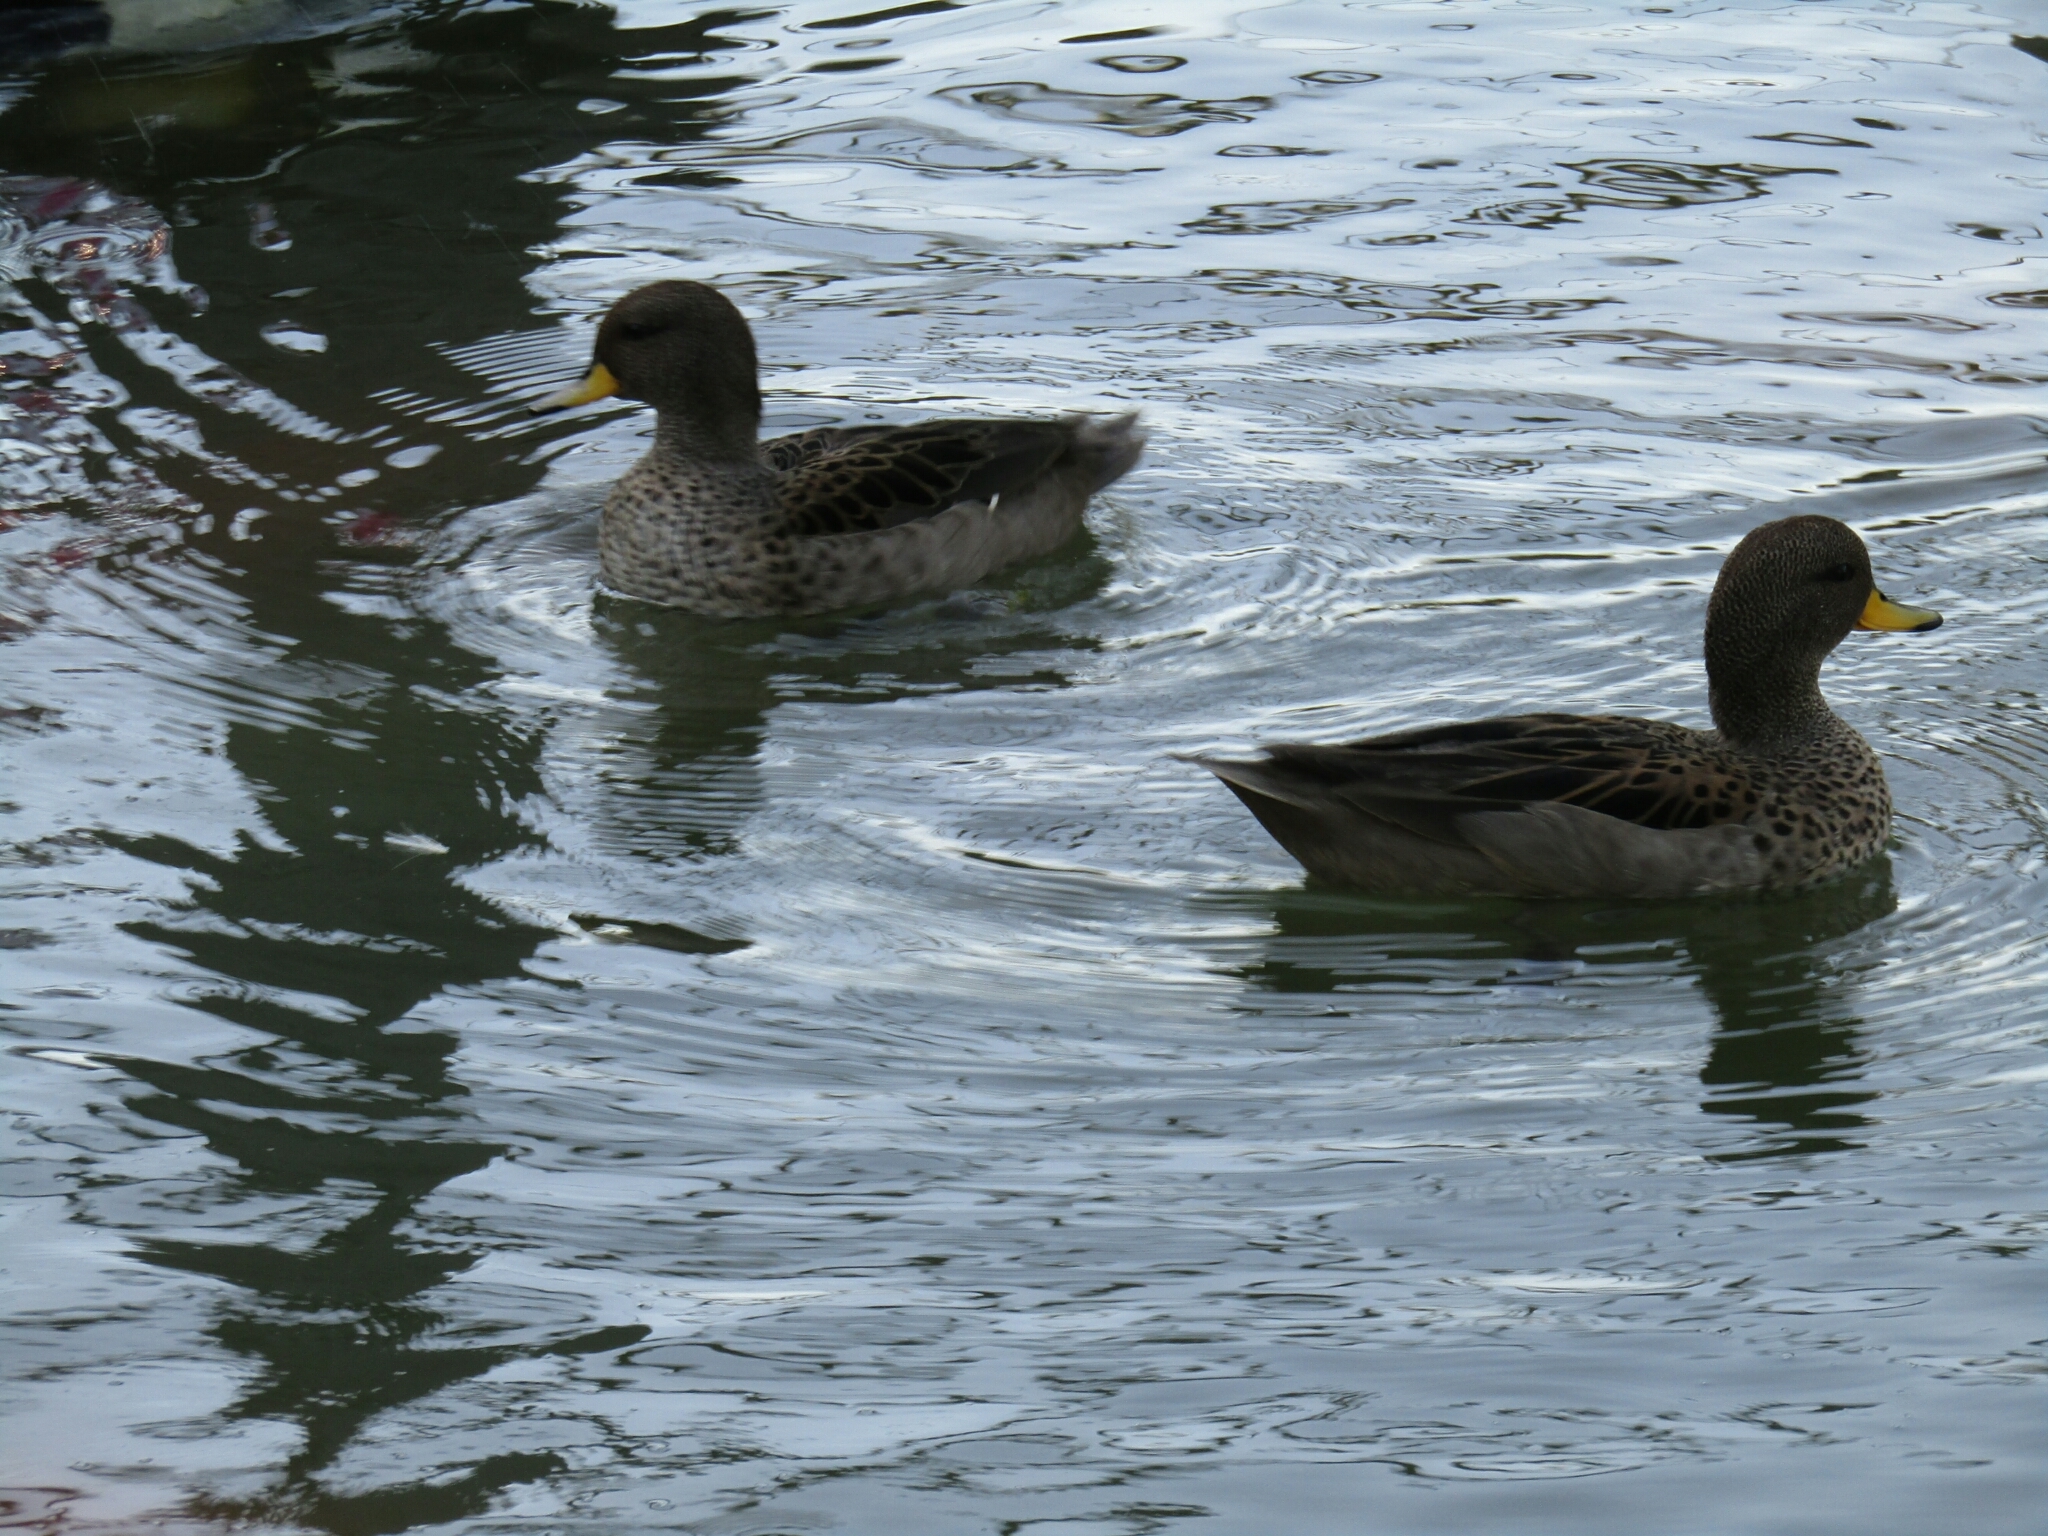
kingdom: Animalia
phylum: Chordata
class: Aves
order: Anseriformes
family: Anatidae
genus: Anas
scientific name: Anas flavirostris
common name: Yellow-billed teal
